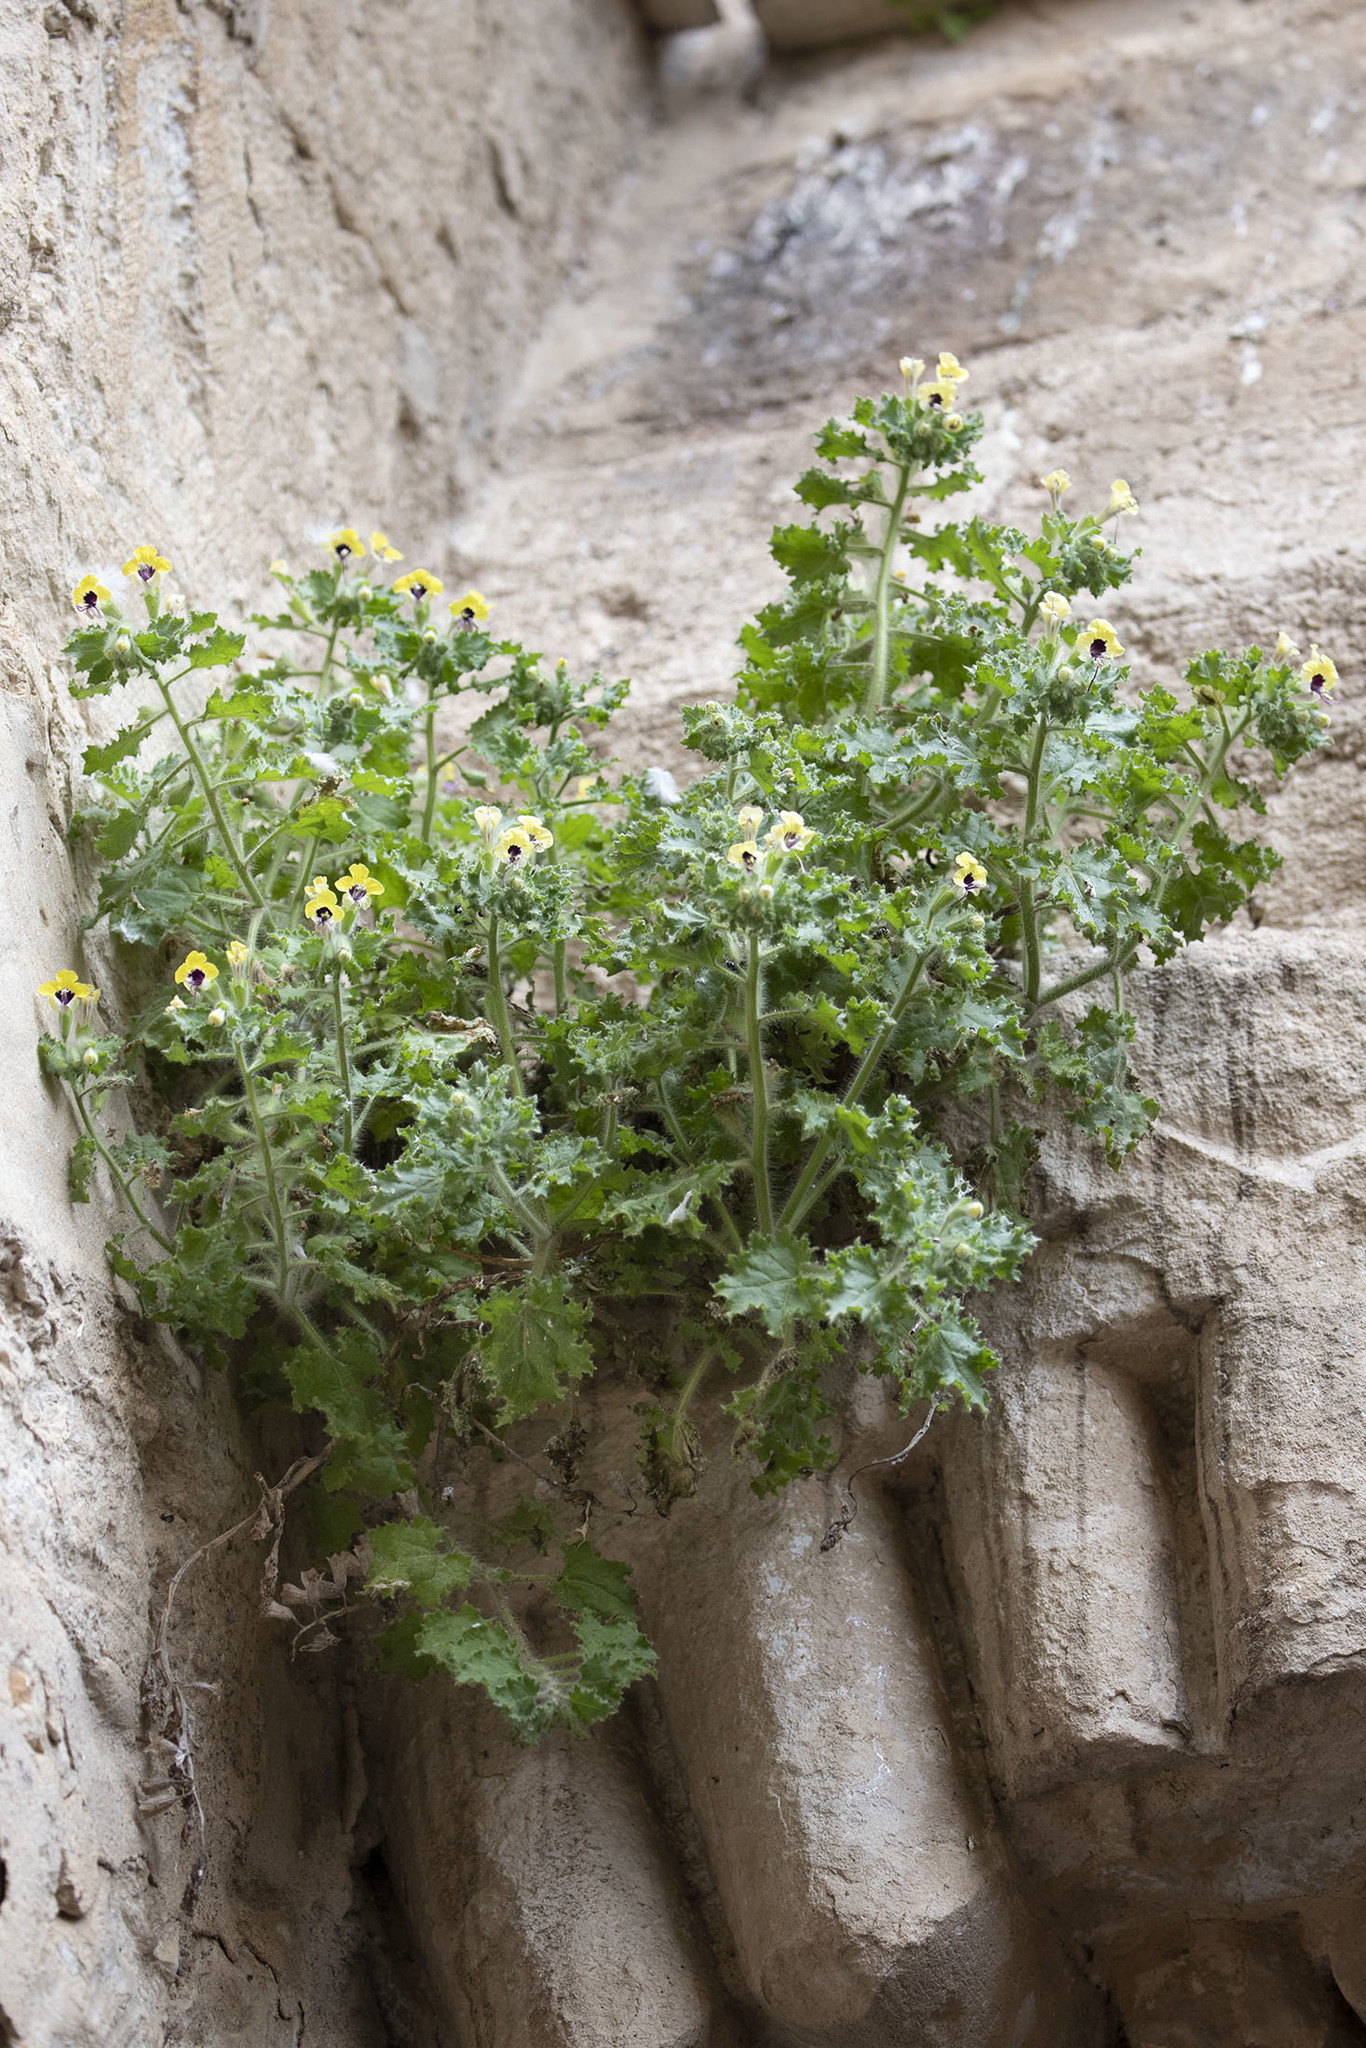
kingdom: Plantae
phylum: Tracheophyta
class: Magnoliopsida
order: Solanales
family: Solanaceae
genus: Hyoscyamus
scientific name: Hyoscyamus aureus
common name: Golden henbane
